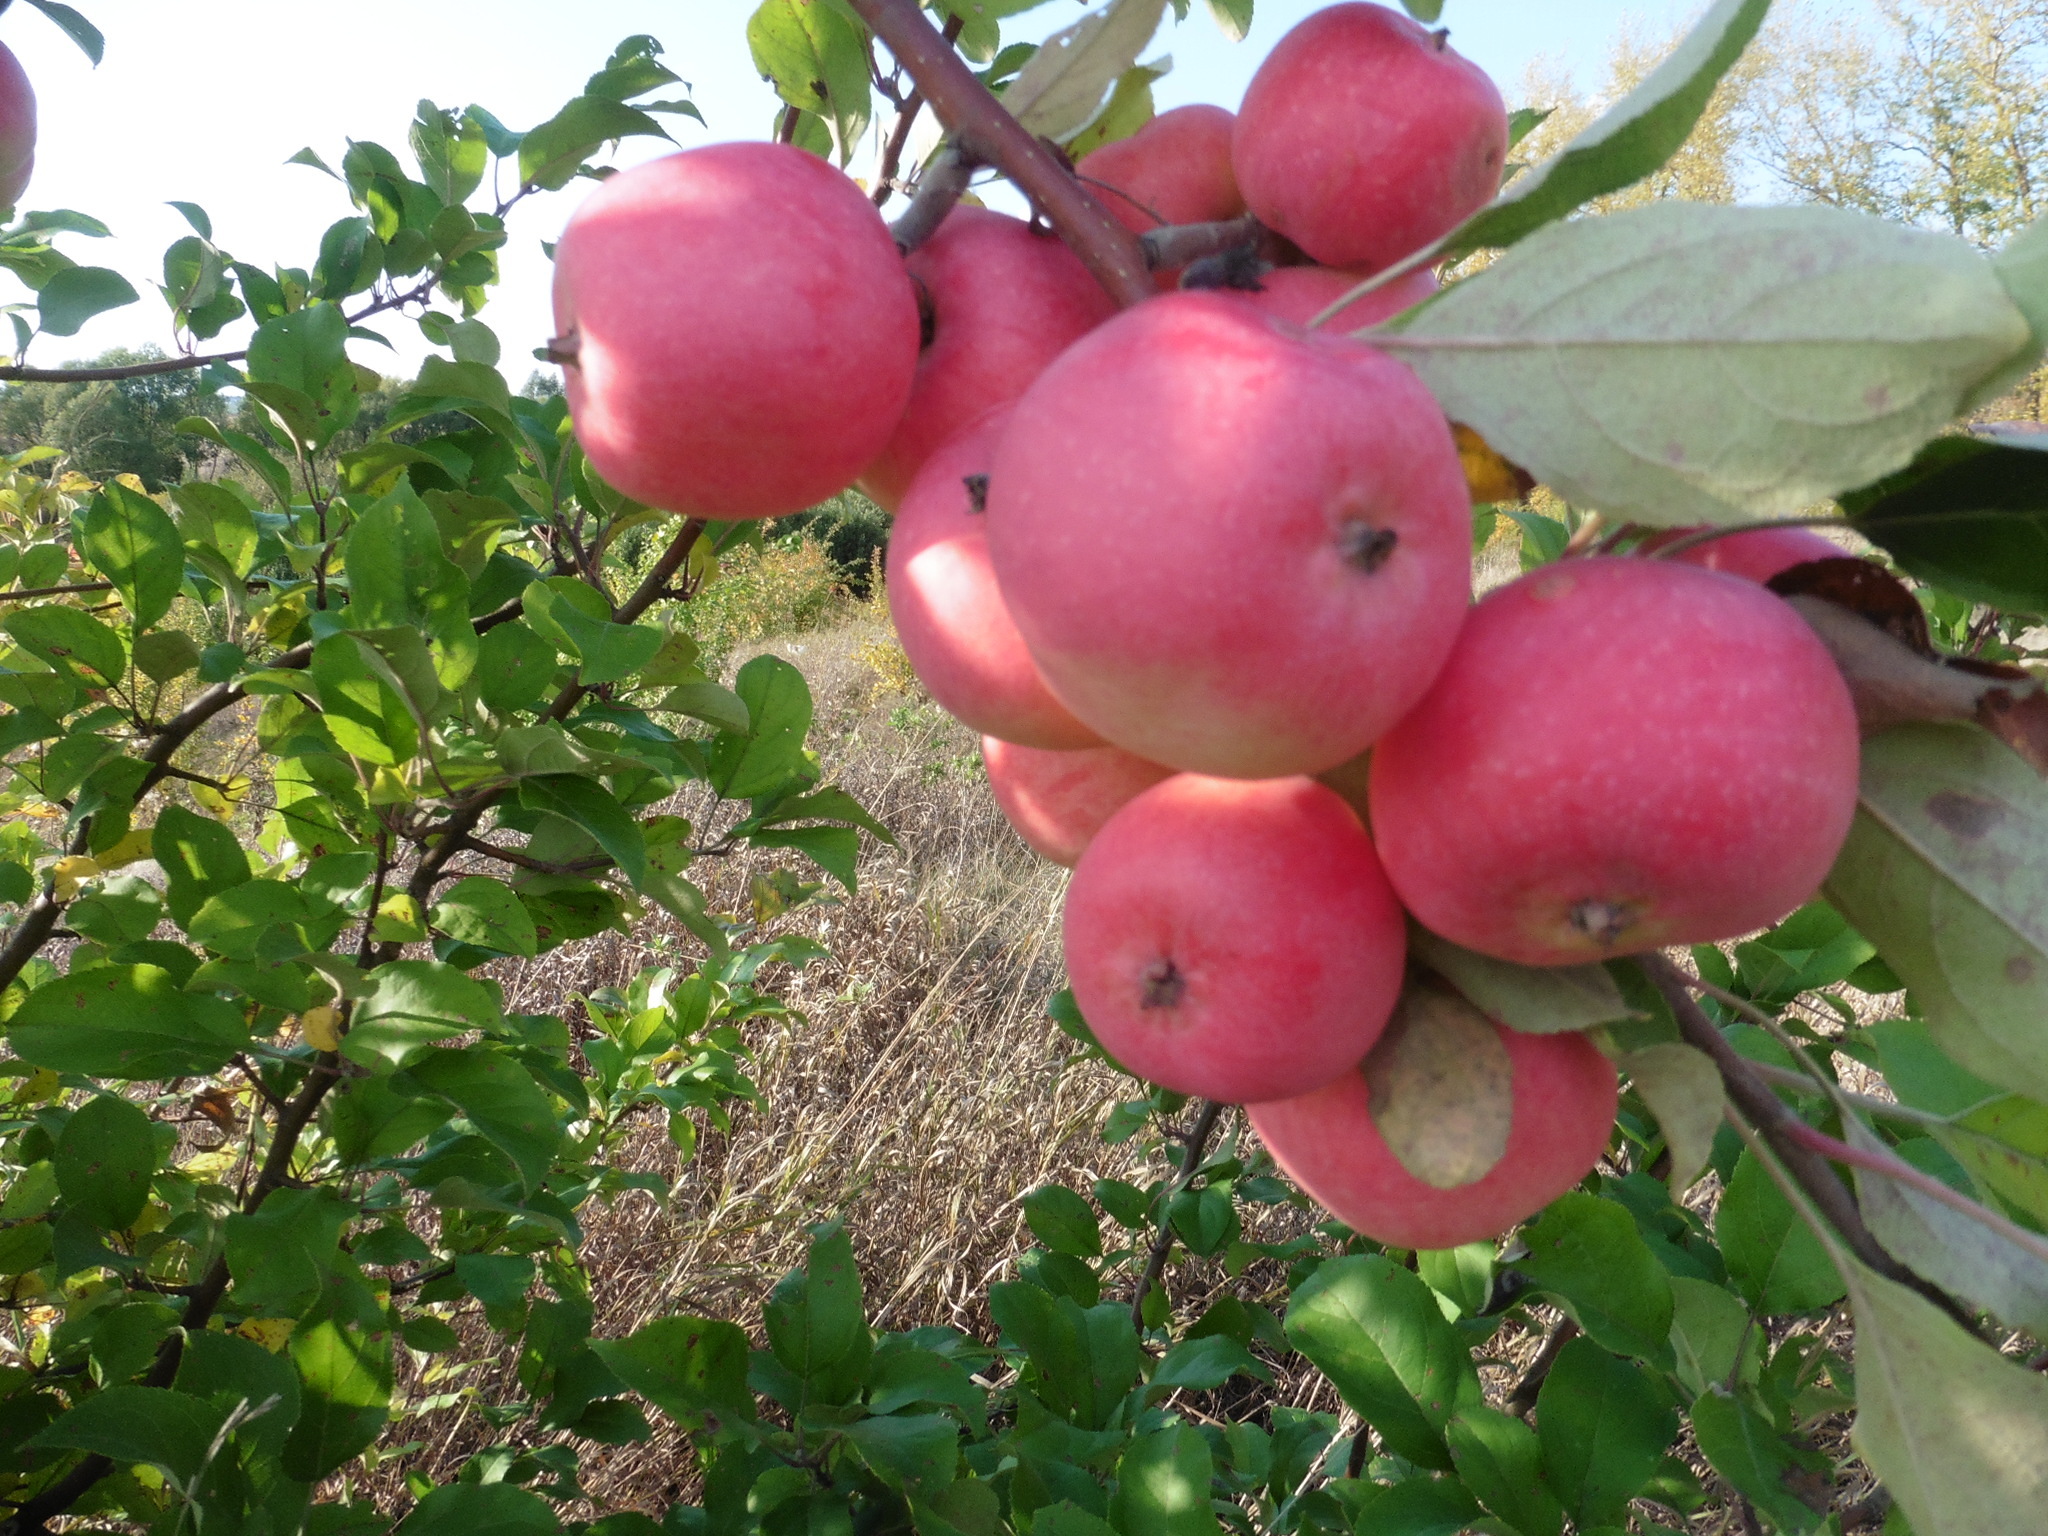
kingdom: Plantae
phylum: Tracheophyta
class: Magnoliopsida
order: Rosales
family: Rosaceae
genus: Malus
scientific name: Malus domestica
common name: Apple
